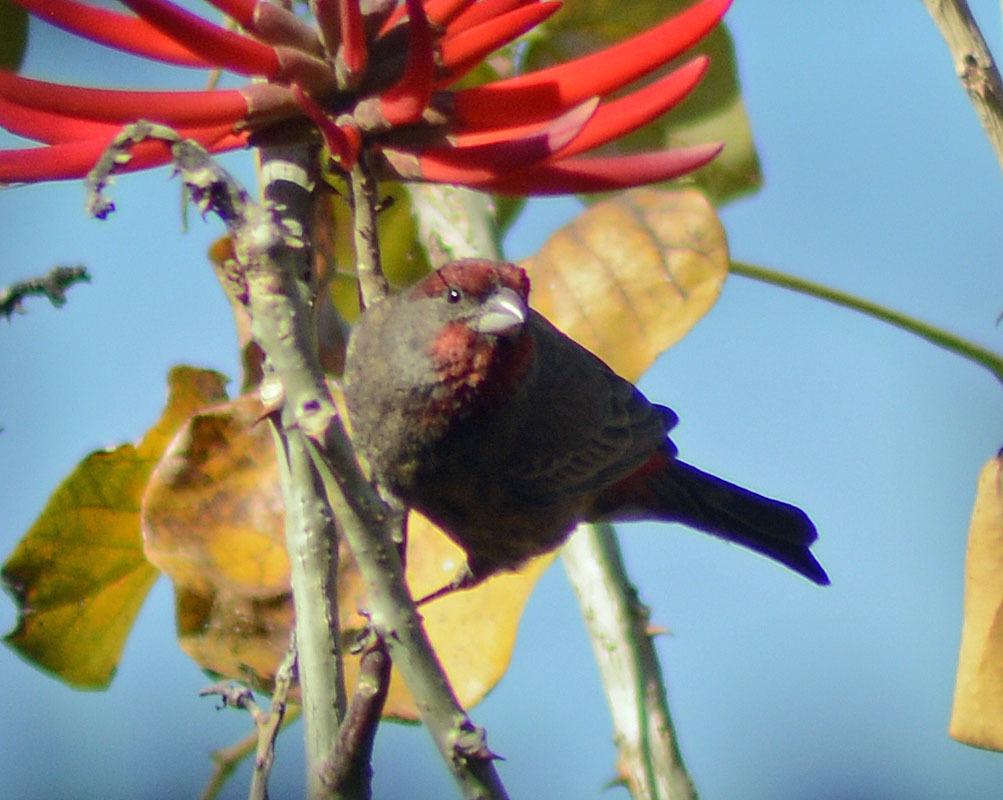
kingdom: Animalia
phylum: Chordata
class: Aves
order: Passeriformes
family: Fringillidae
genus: Haemorhous
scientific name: Haemorhous mexicanus
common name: House finch
